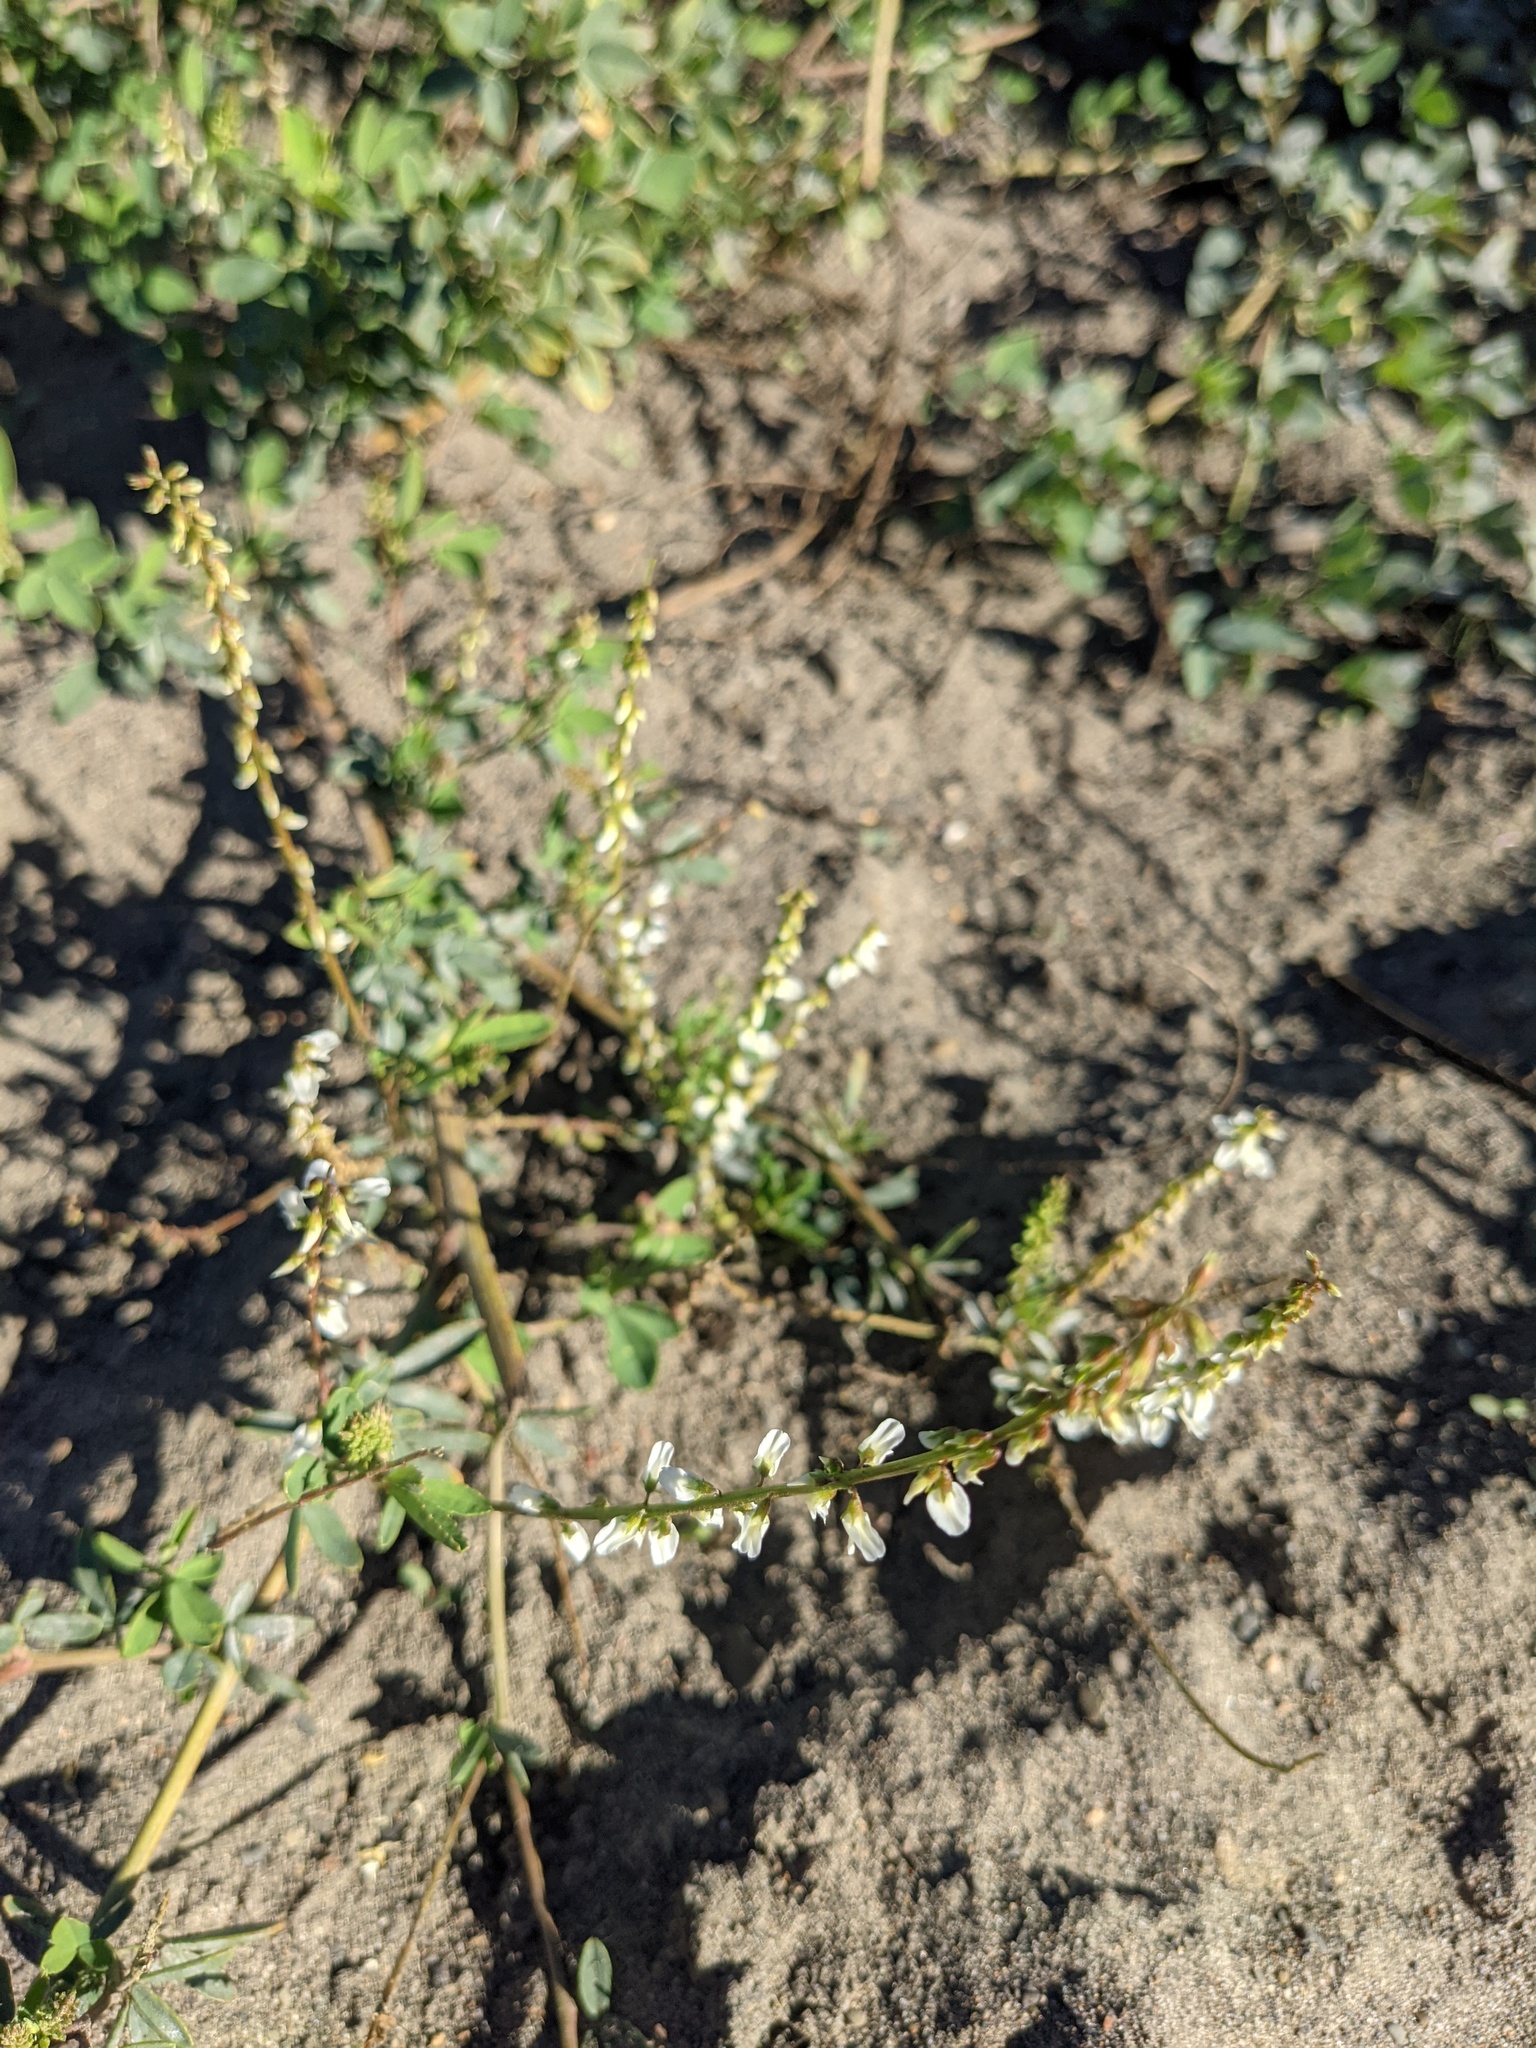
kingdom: Plantae
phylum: Tracheophyta
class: Magnoliopsida
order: Fabales
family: Fabaceae
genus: Melilotus
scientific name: Melilotus albus
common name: White melilot
